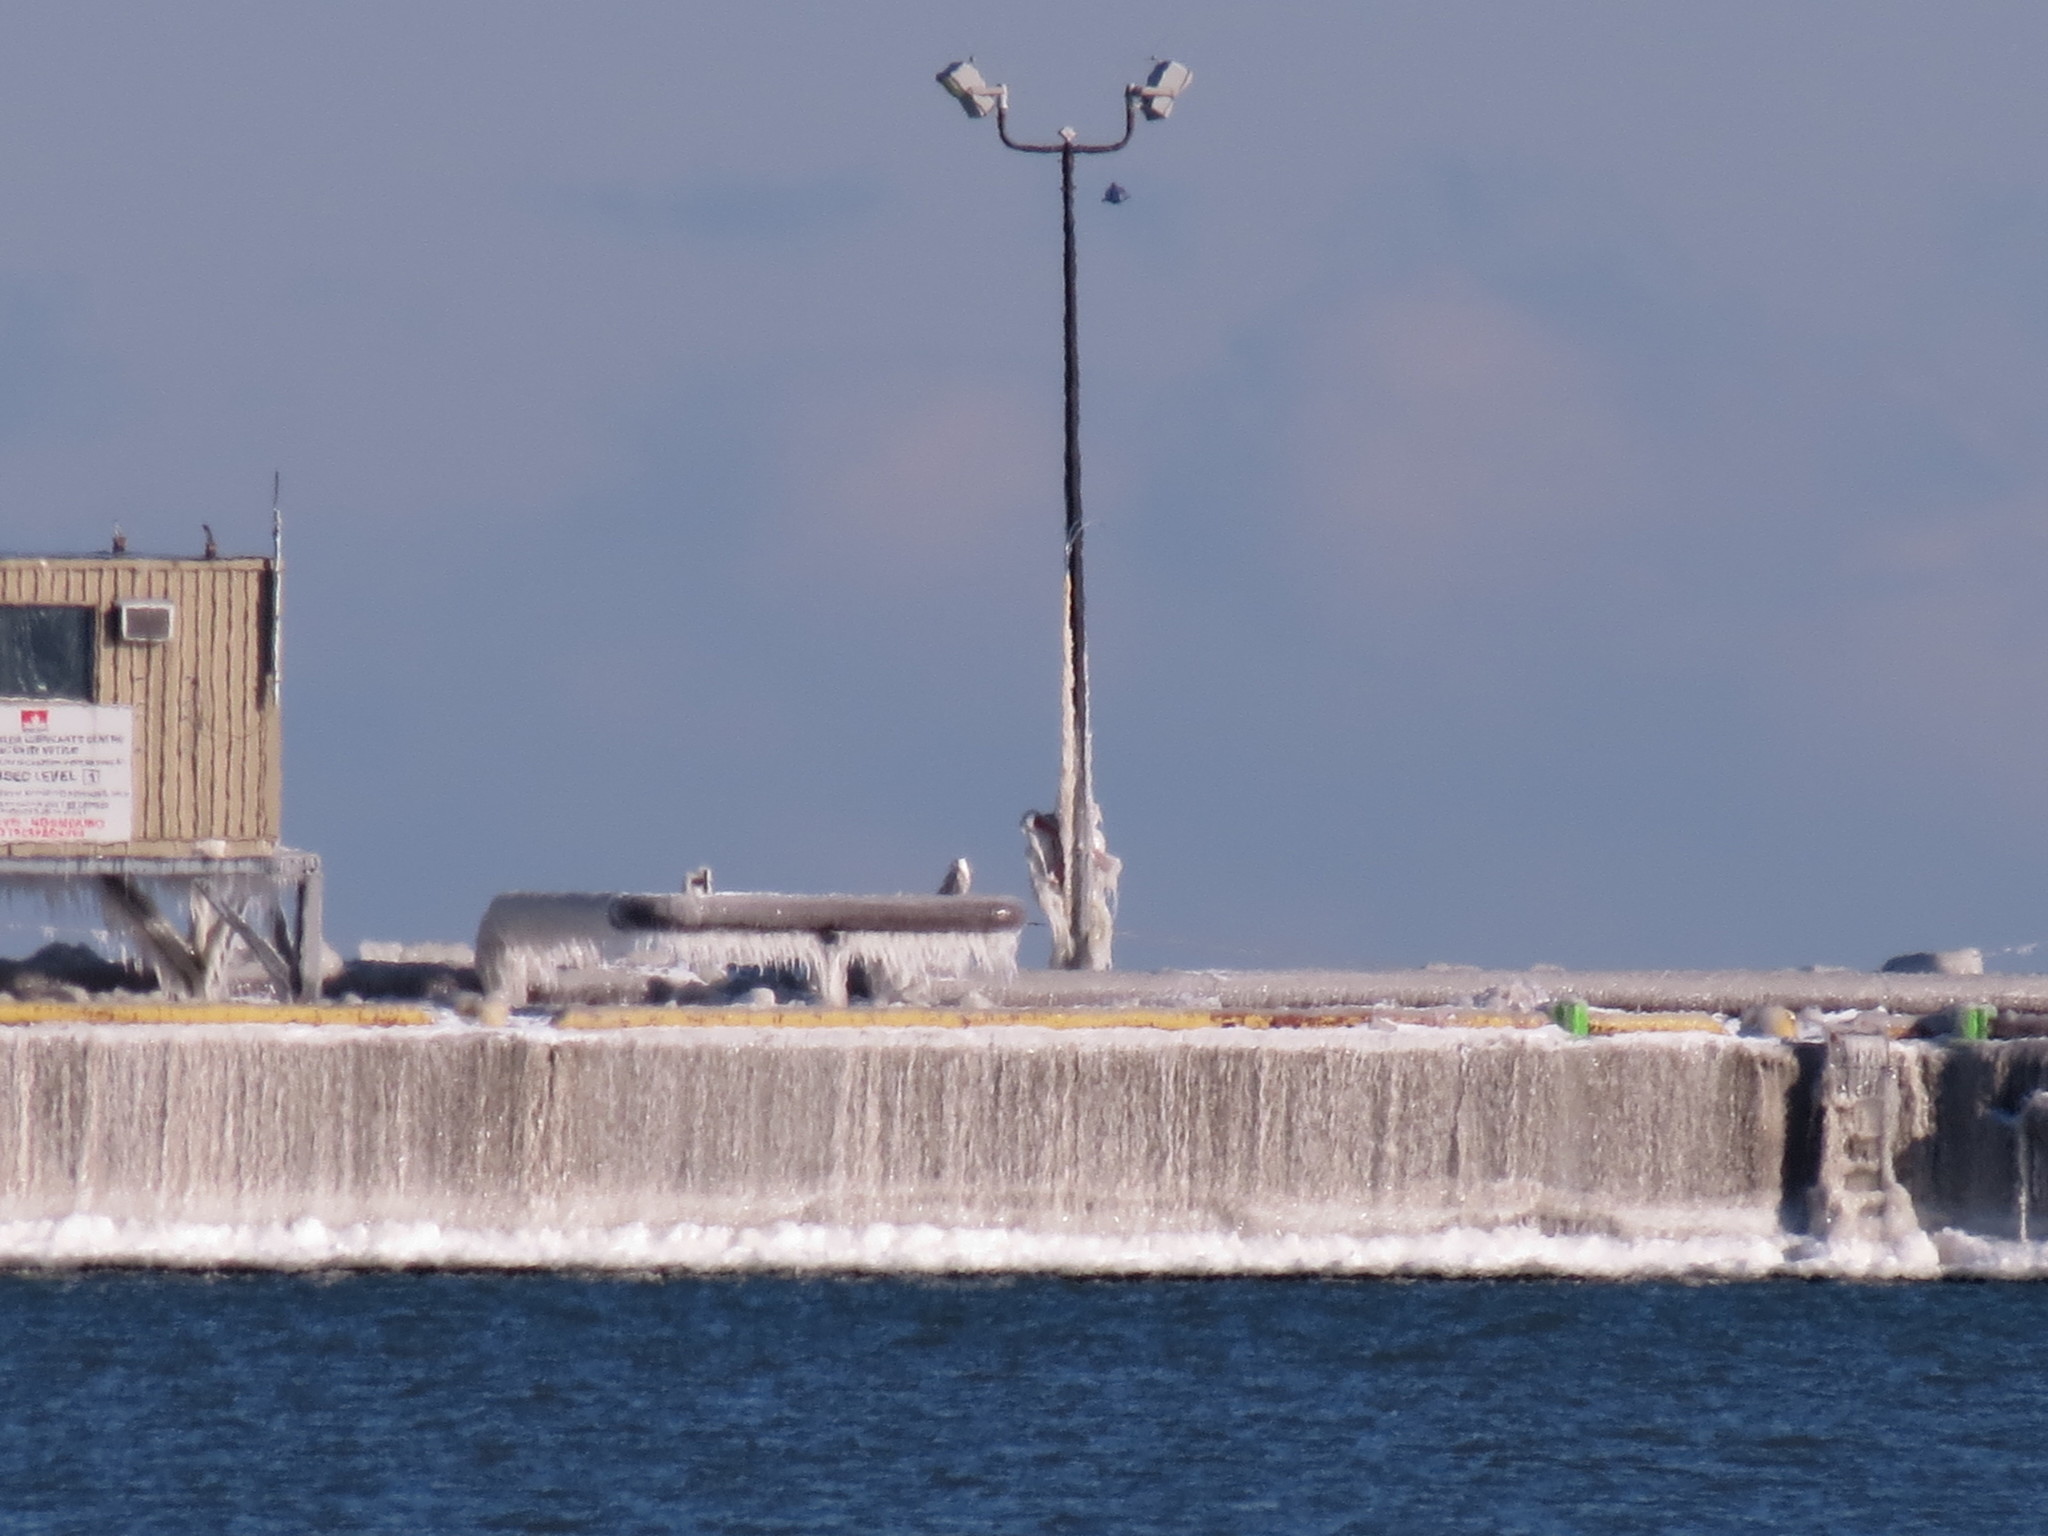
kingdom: Animalia
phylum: Chordata
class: Aves
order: Strigiformes
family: Strigidae
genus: Bubo
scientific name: Bubo scandiacus
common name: Snowy owl
